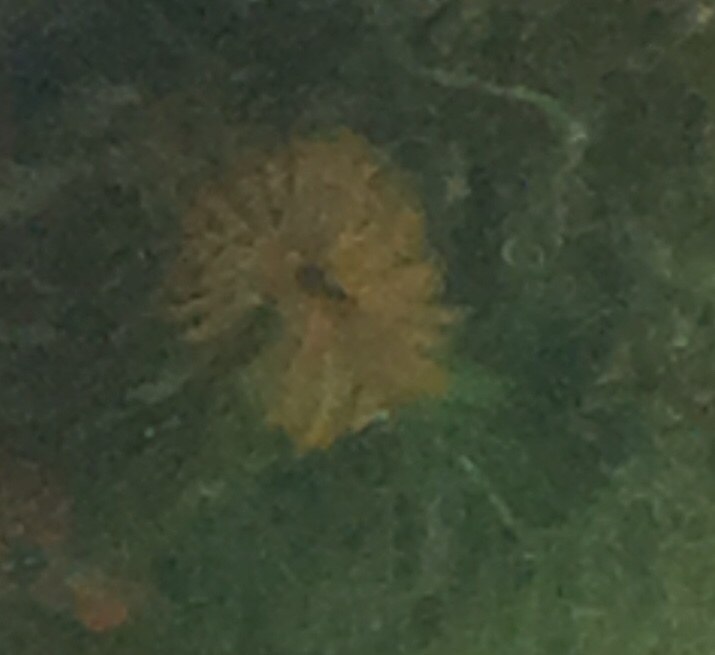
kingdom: Animalia
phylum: Annelida
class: Polychaeta
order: Sabellida
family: Sabellidae
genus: Eudistylia
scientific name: Eudistylia polymorpha
